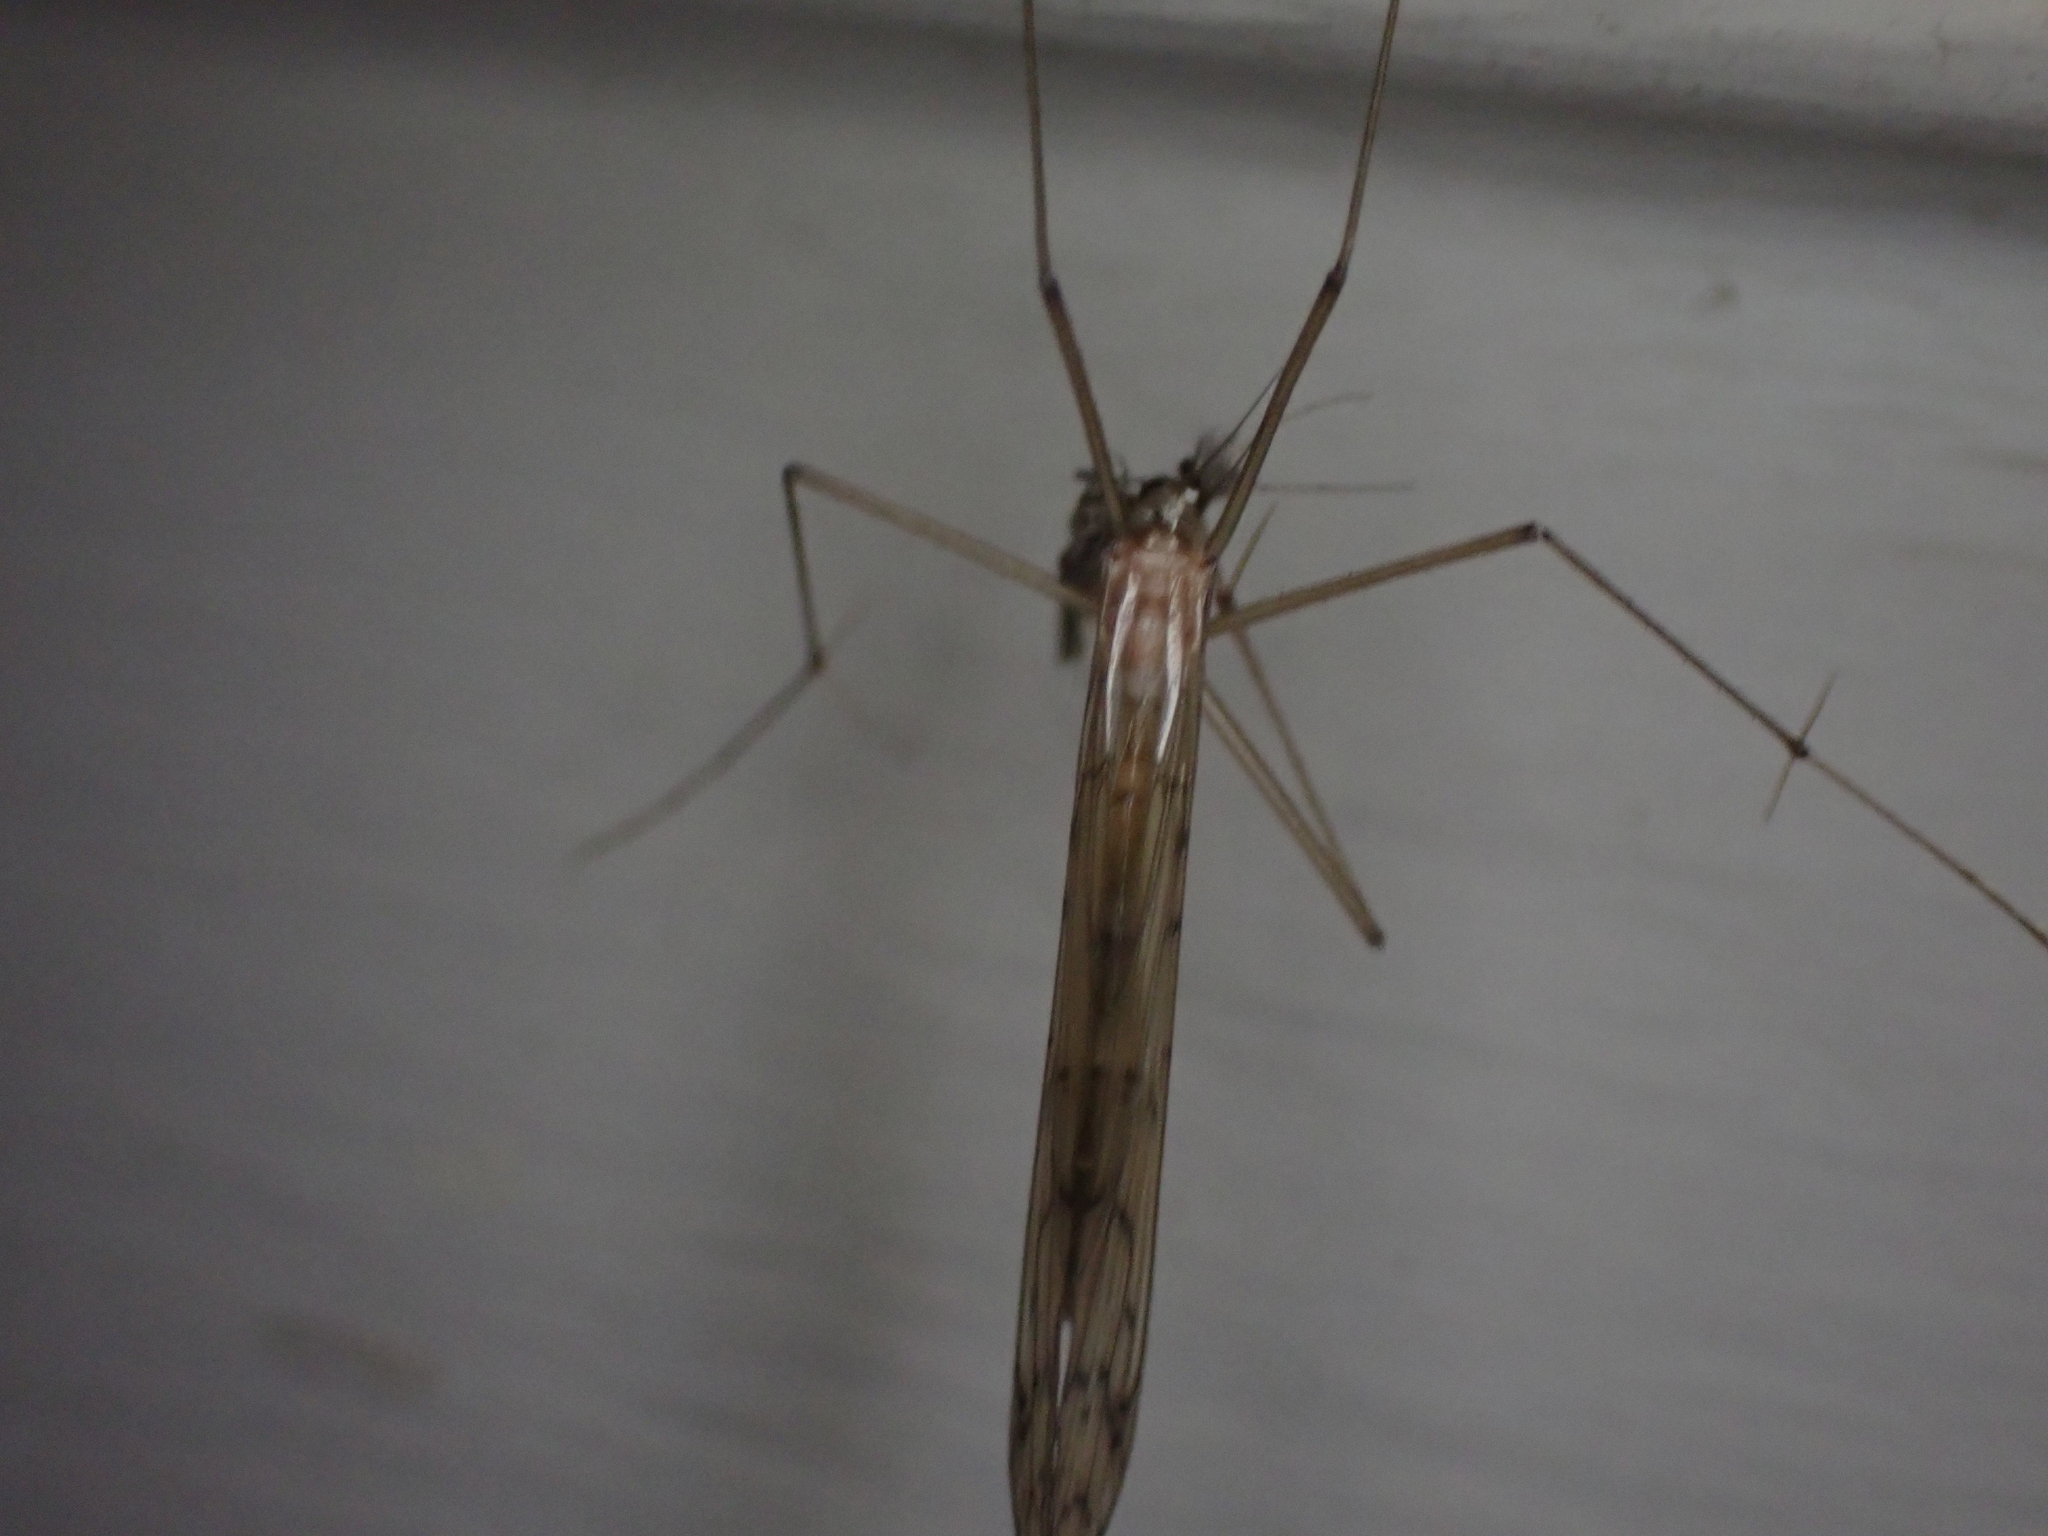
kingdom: Animalia
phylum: Arthropoda
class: Insecta
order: Mecoptera
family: Bittacidae
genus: Bittacus
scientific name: Bittacus strigosus
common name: Thin hangingfly
